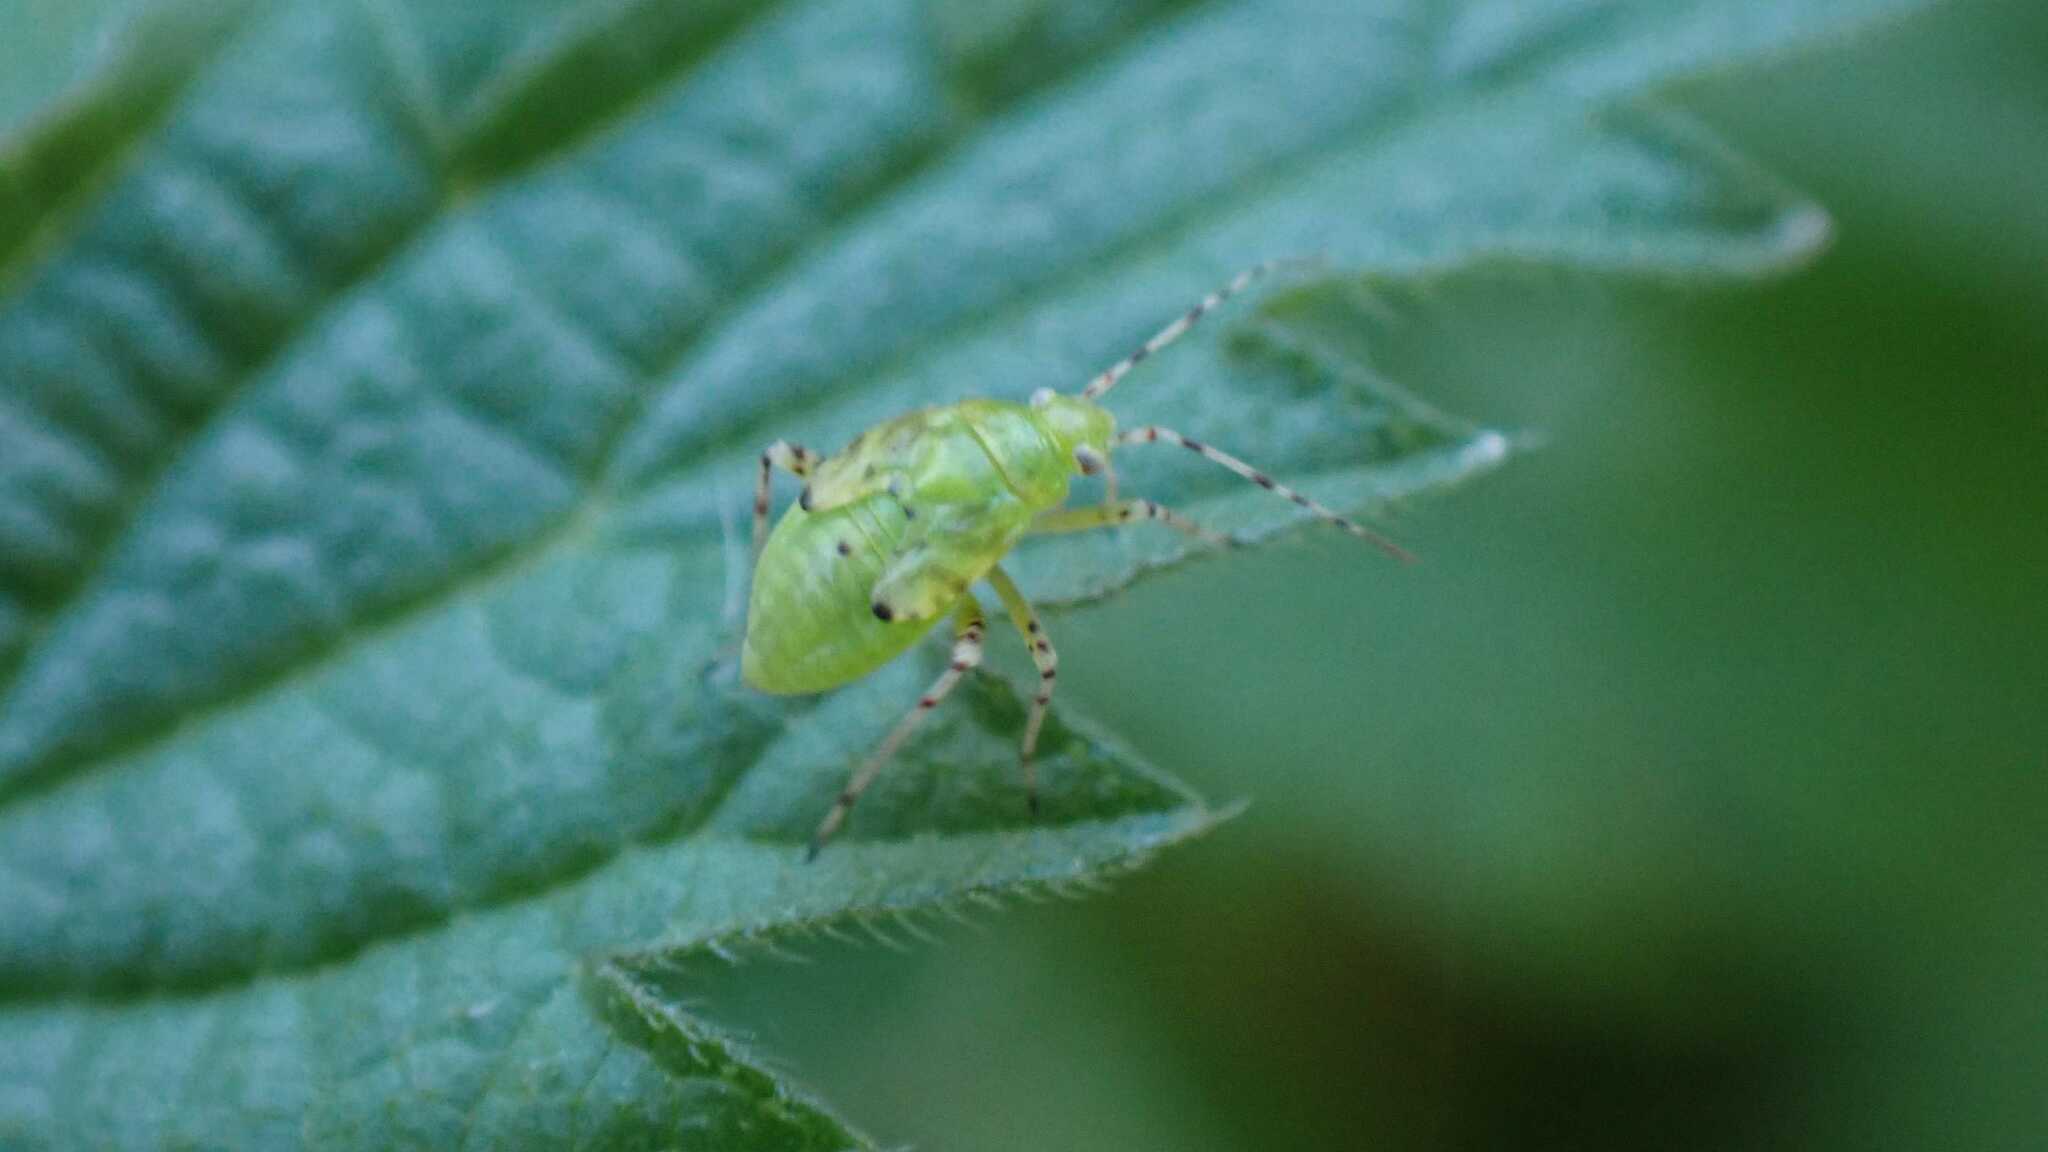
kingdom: Animalia
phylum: Arthropoda
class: Insecta
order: Hemiptera
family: Miridae
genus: Liocoris
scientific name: Liocoris tripustulatus
